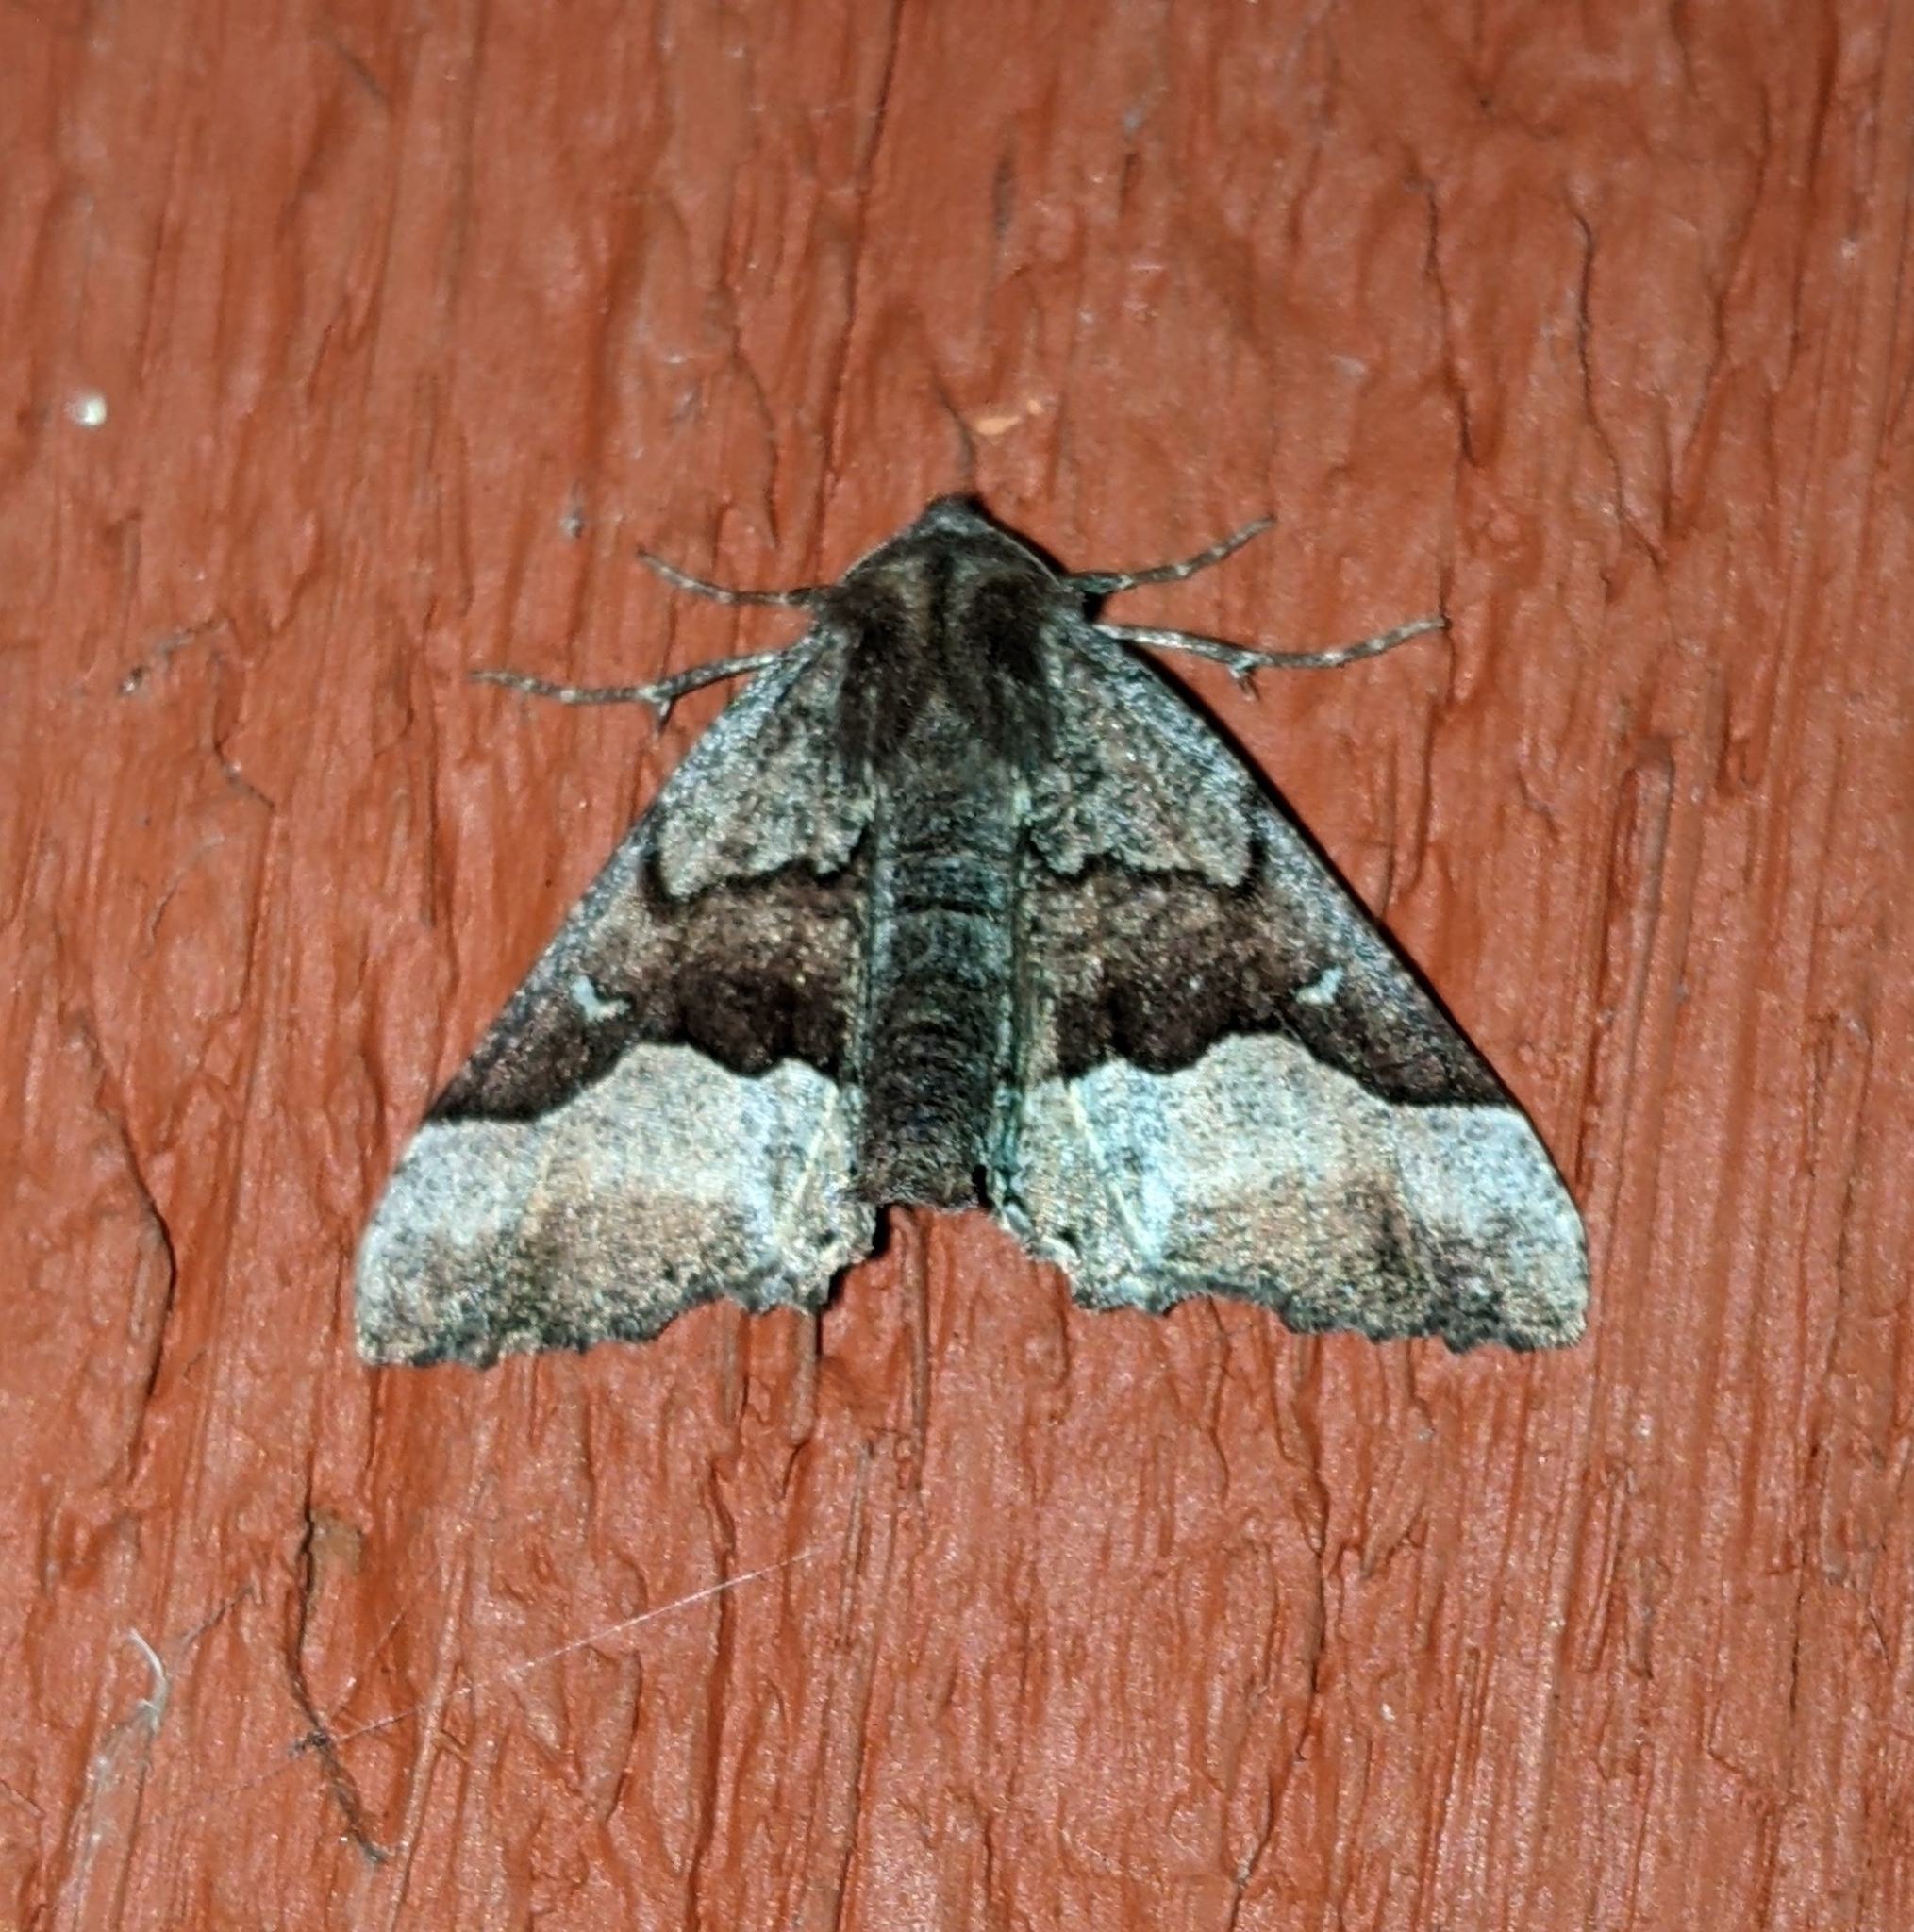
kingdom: Animalia
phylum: Arthropoda
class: Insecta
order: Lepidoptera
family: Geometridae
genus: Pero
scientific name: Pero behrensaria
